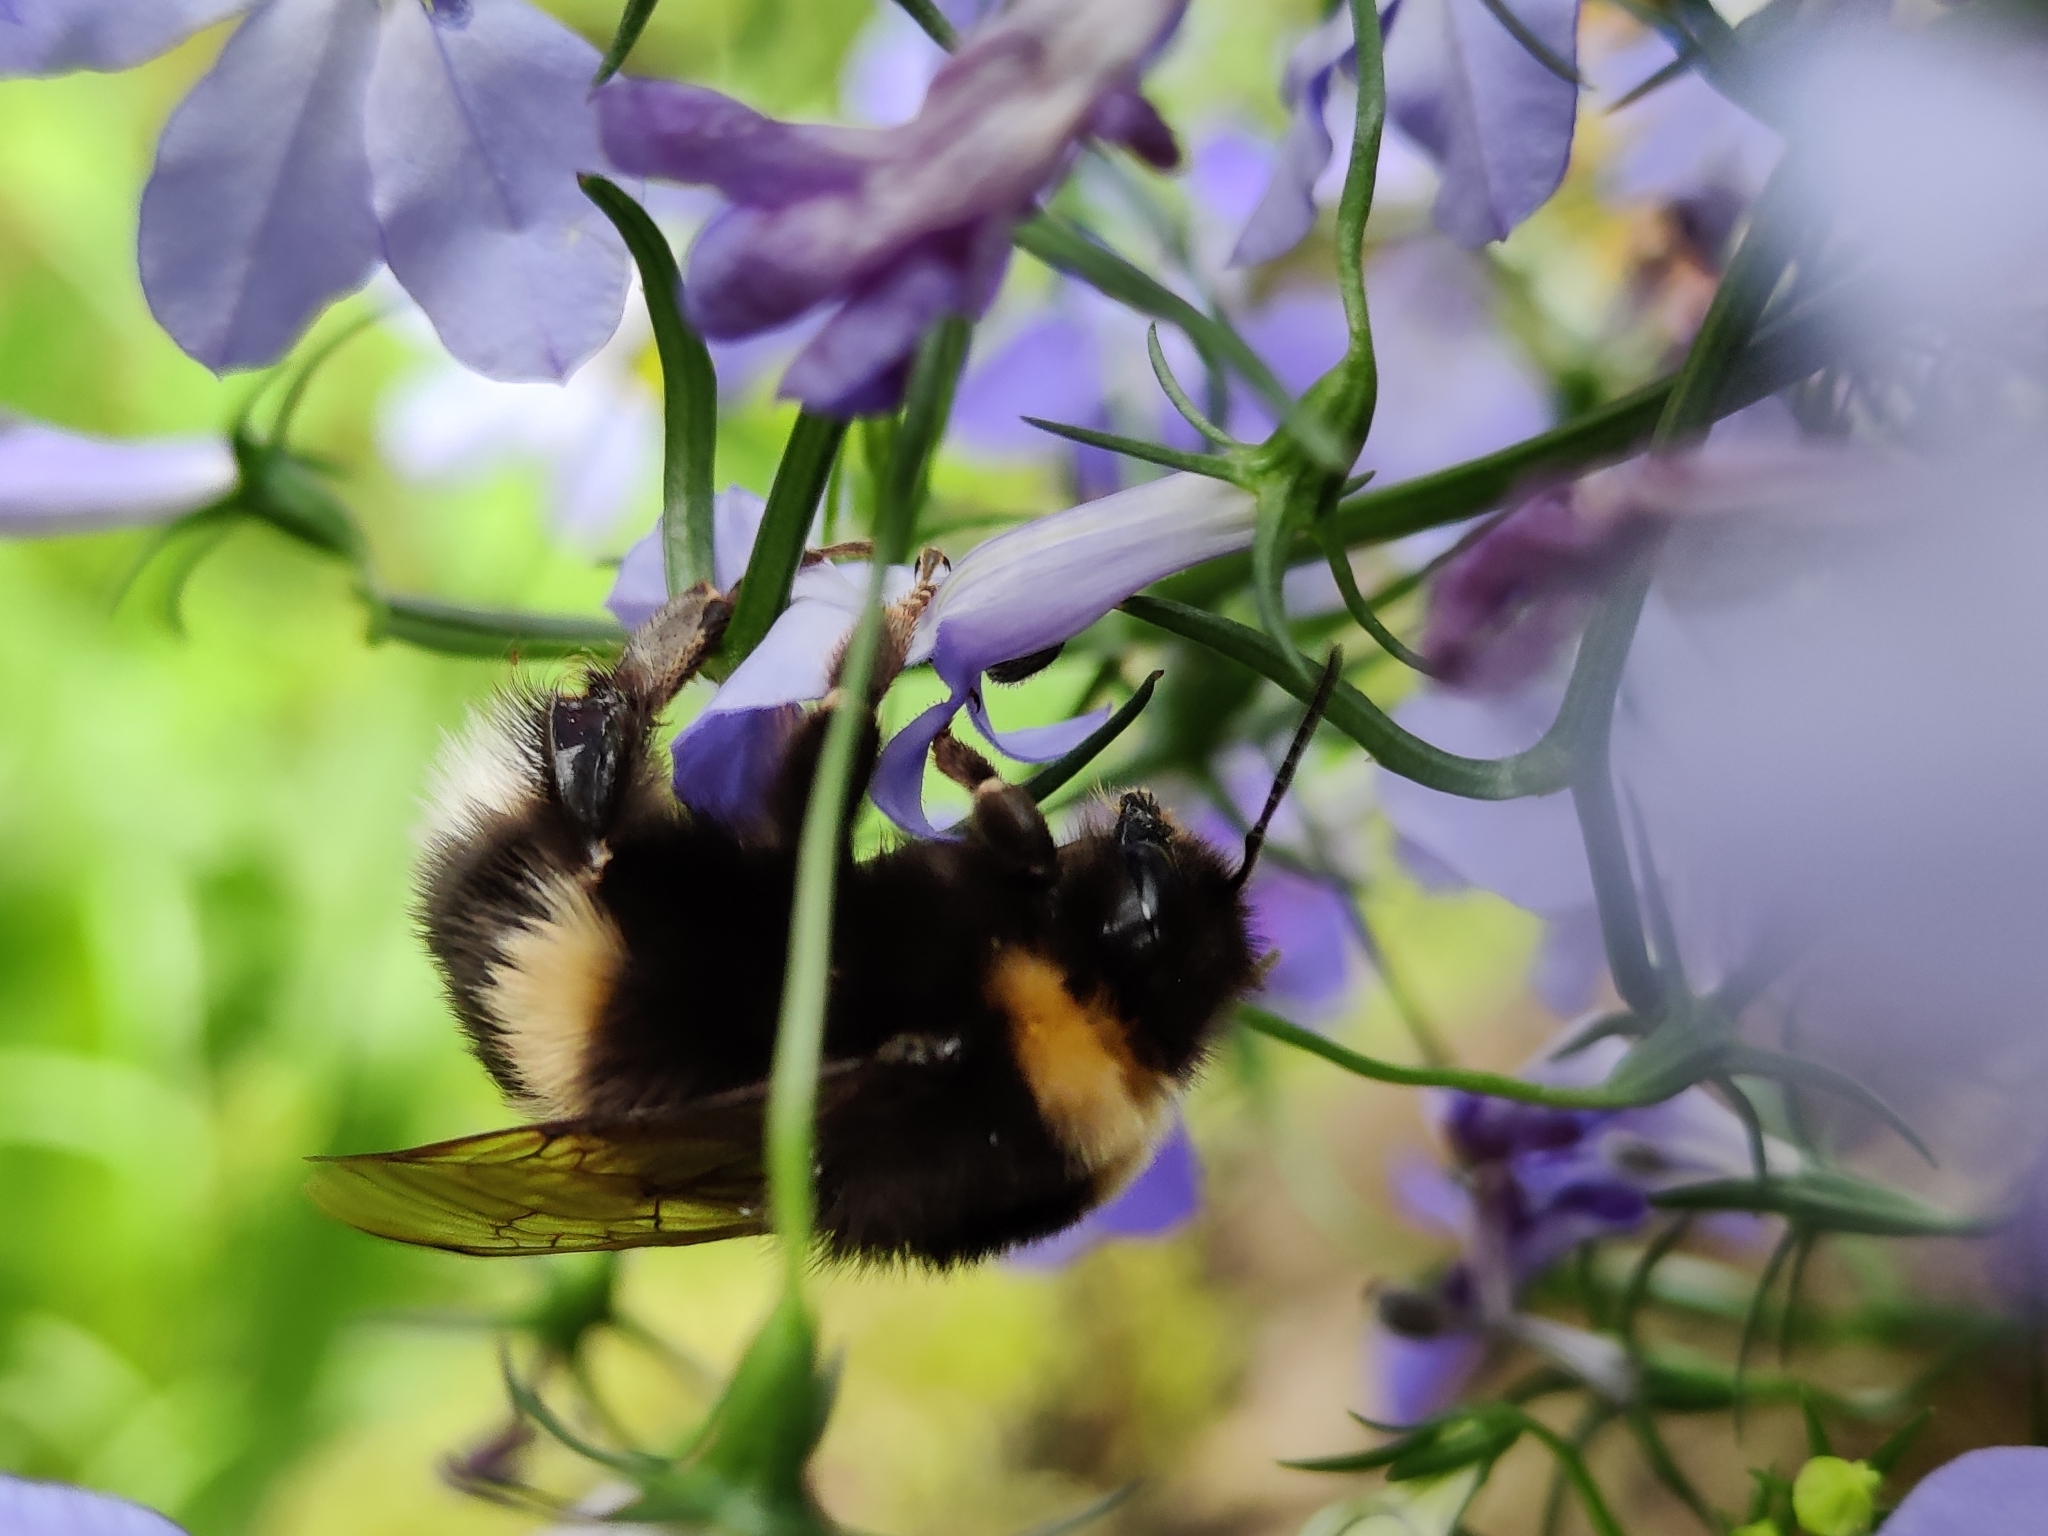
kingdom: Animalia
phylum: Arthropoda
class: Insecta
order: Hymenoptera
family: Apidae
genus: Bombus
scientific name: Bombus
